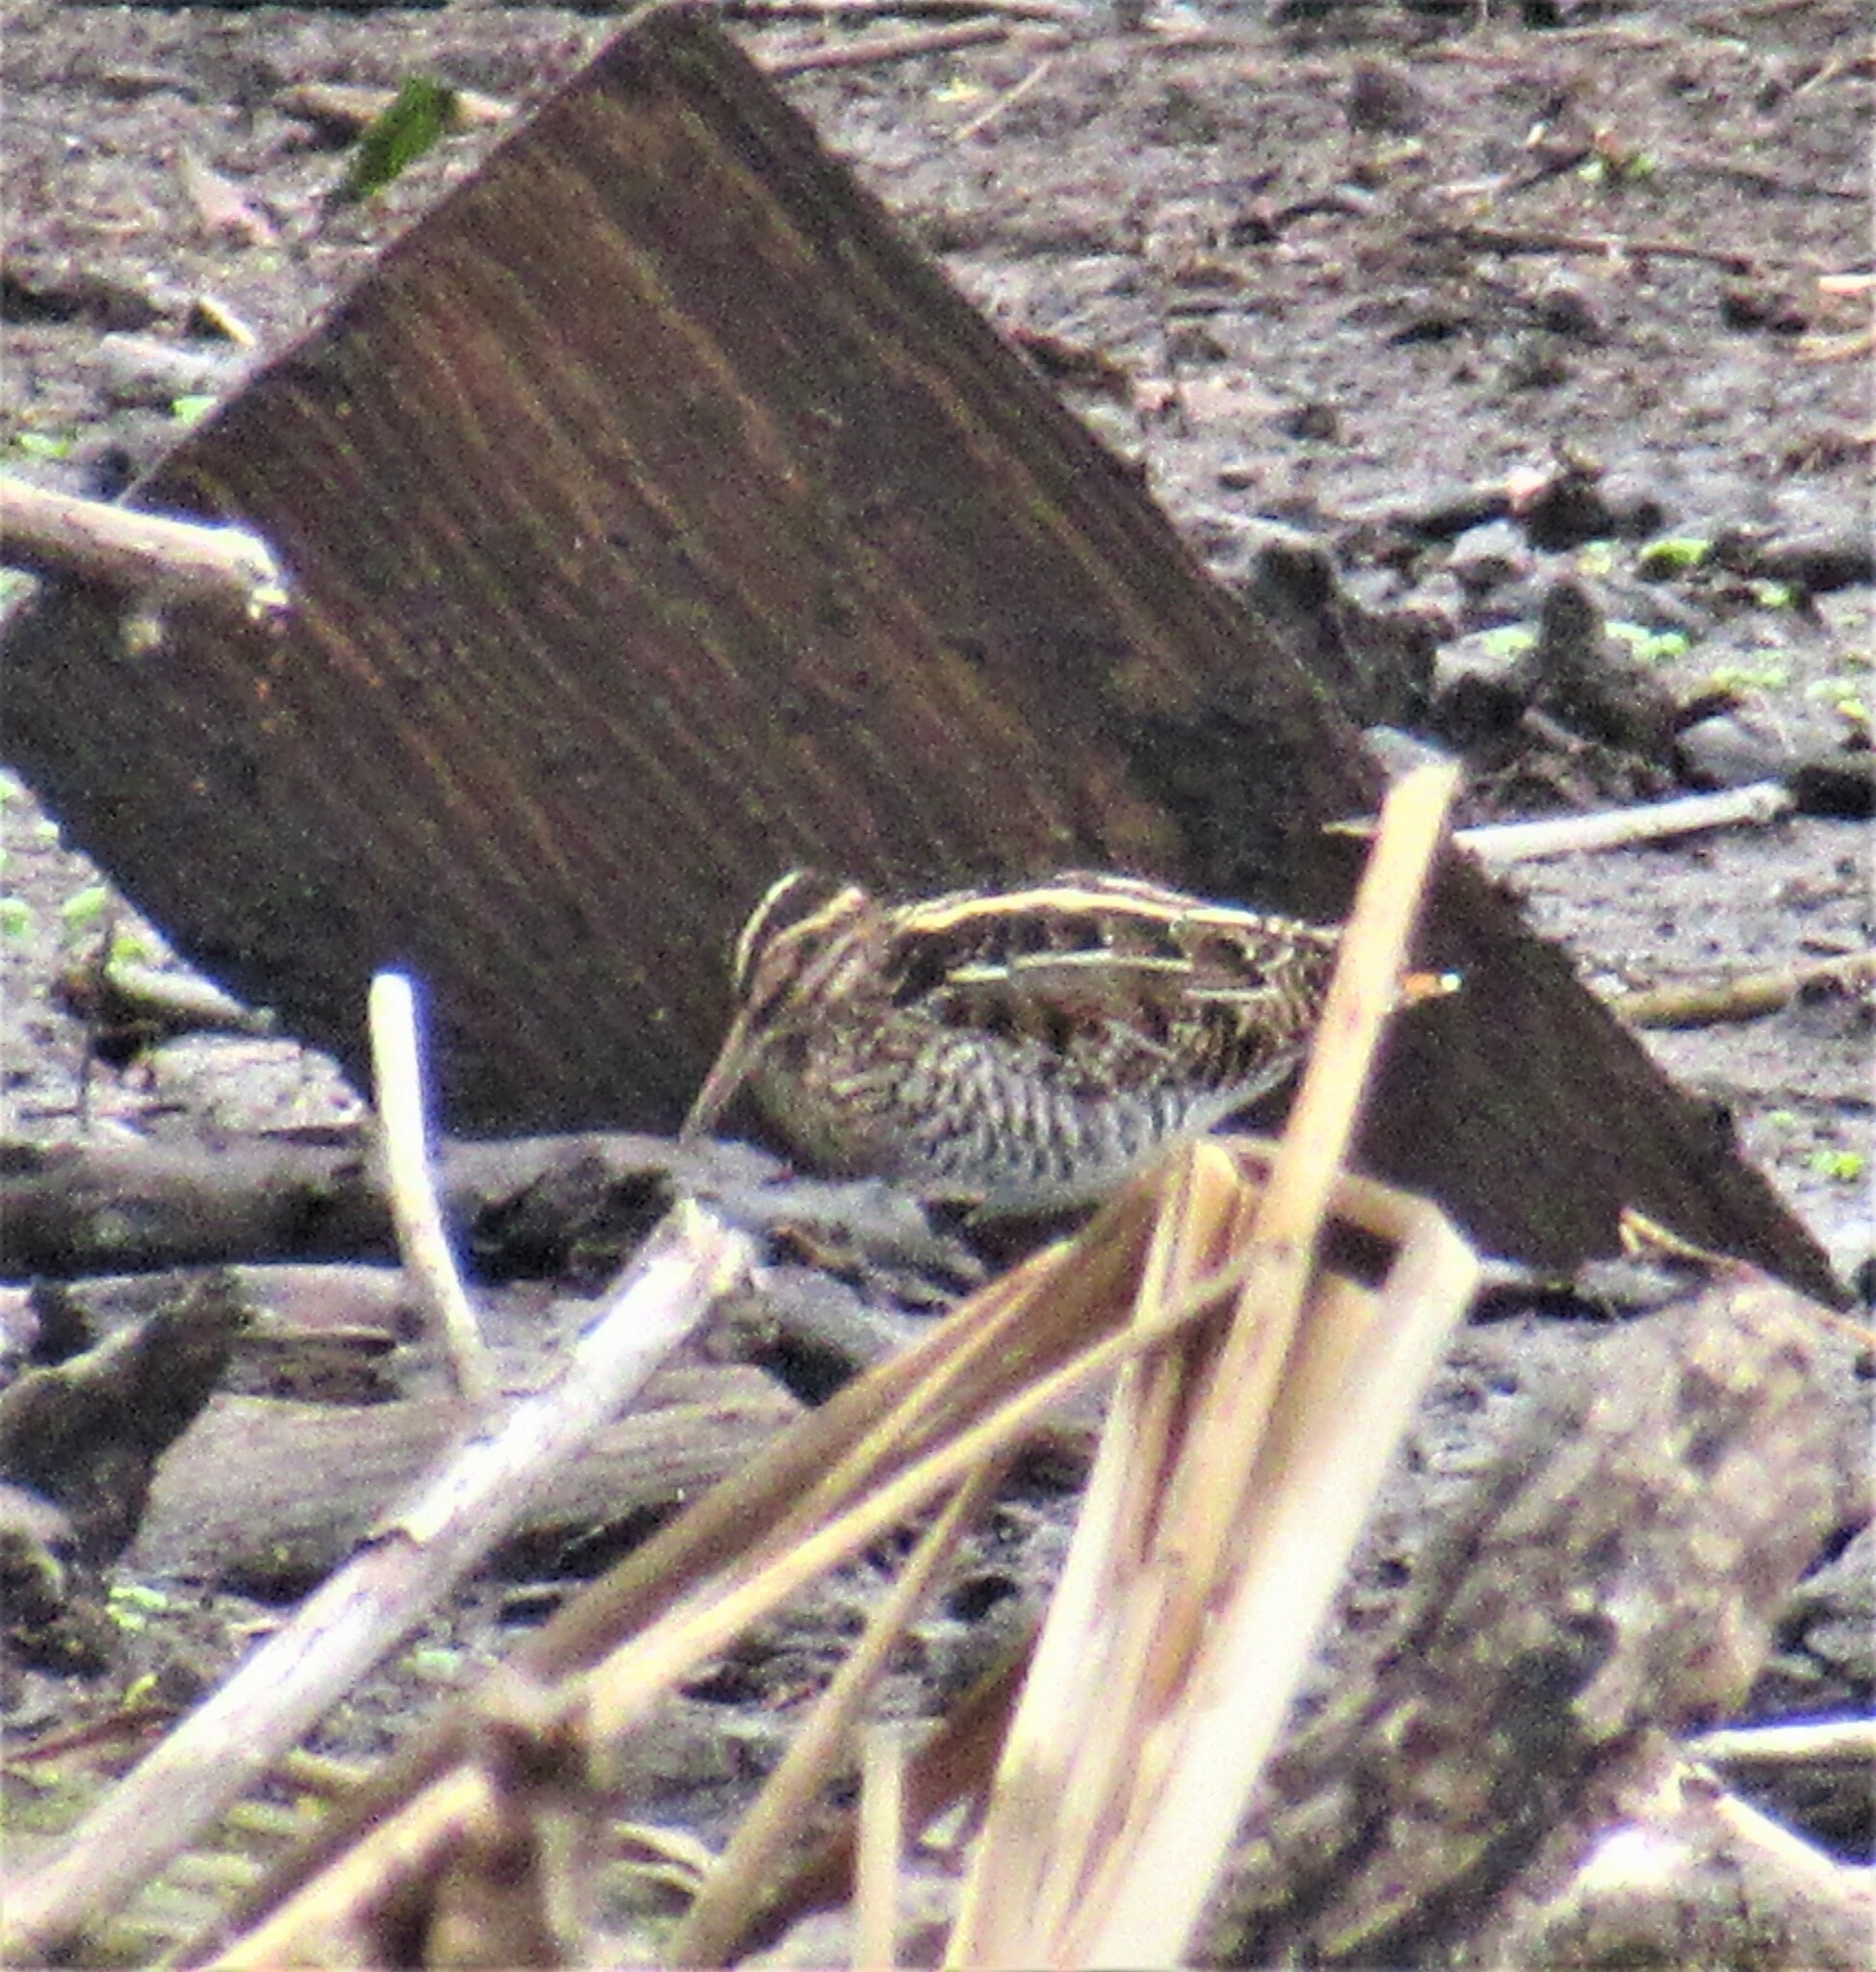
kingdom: Animalia
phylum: Chordata
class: Aves
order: Charadriiformes
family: Scolopacidae
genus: Gallinago
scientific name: Gallinago delicata
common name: Wilson's snipe
